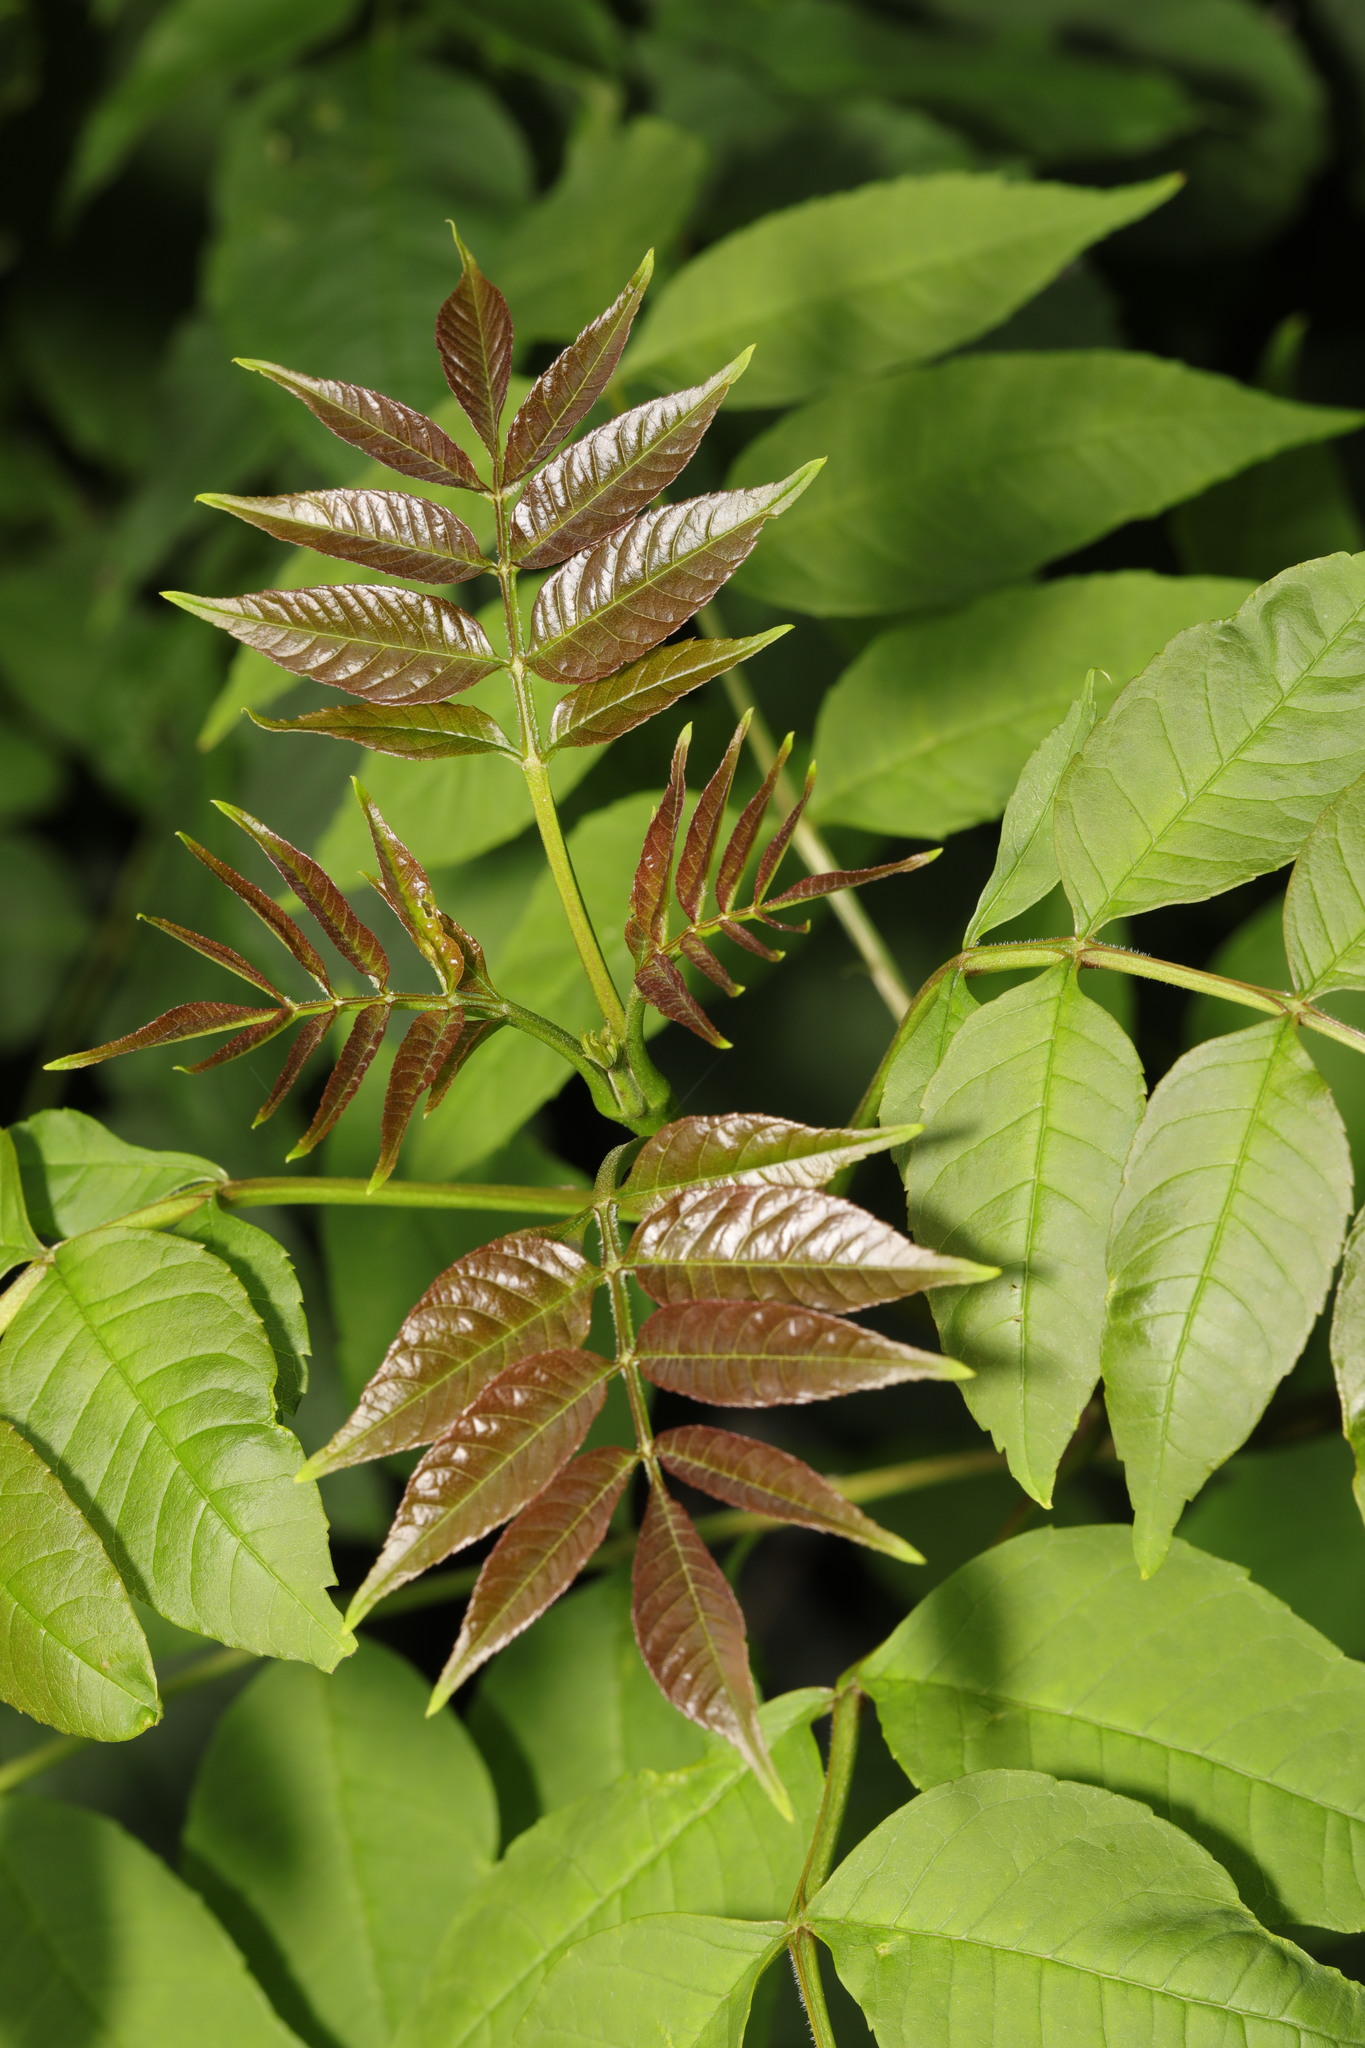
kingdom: Plantae
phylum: Tracheophyta
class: Magnoliopsida
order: Lamiales
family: Oleaceae
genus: Fraxinus
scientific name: Fraxinus excelsior
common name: European ash
